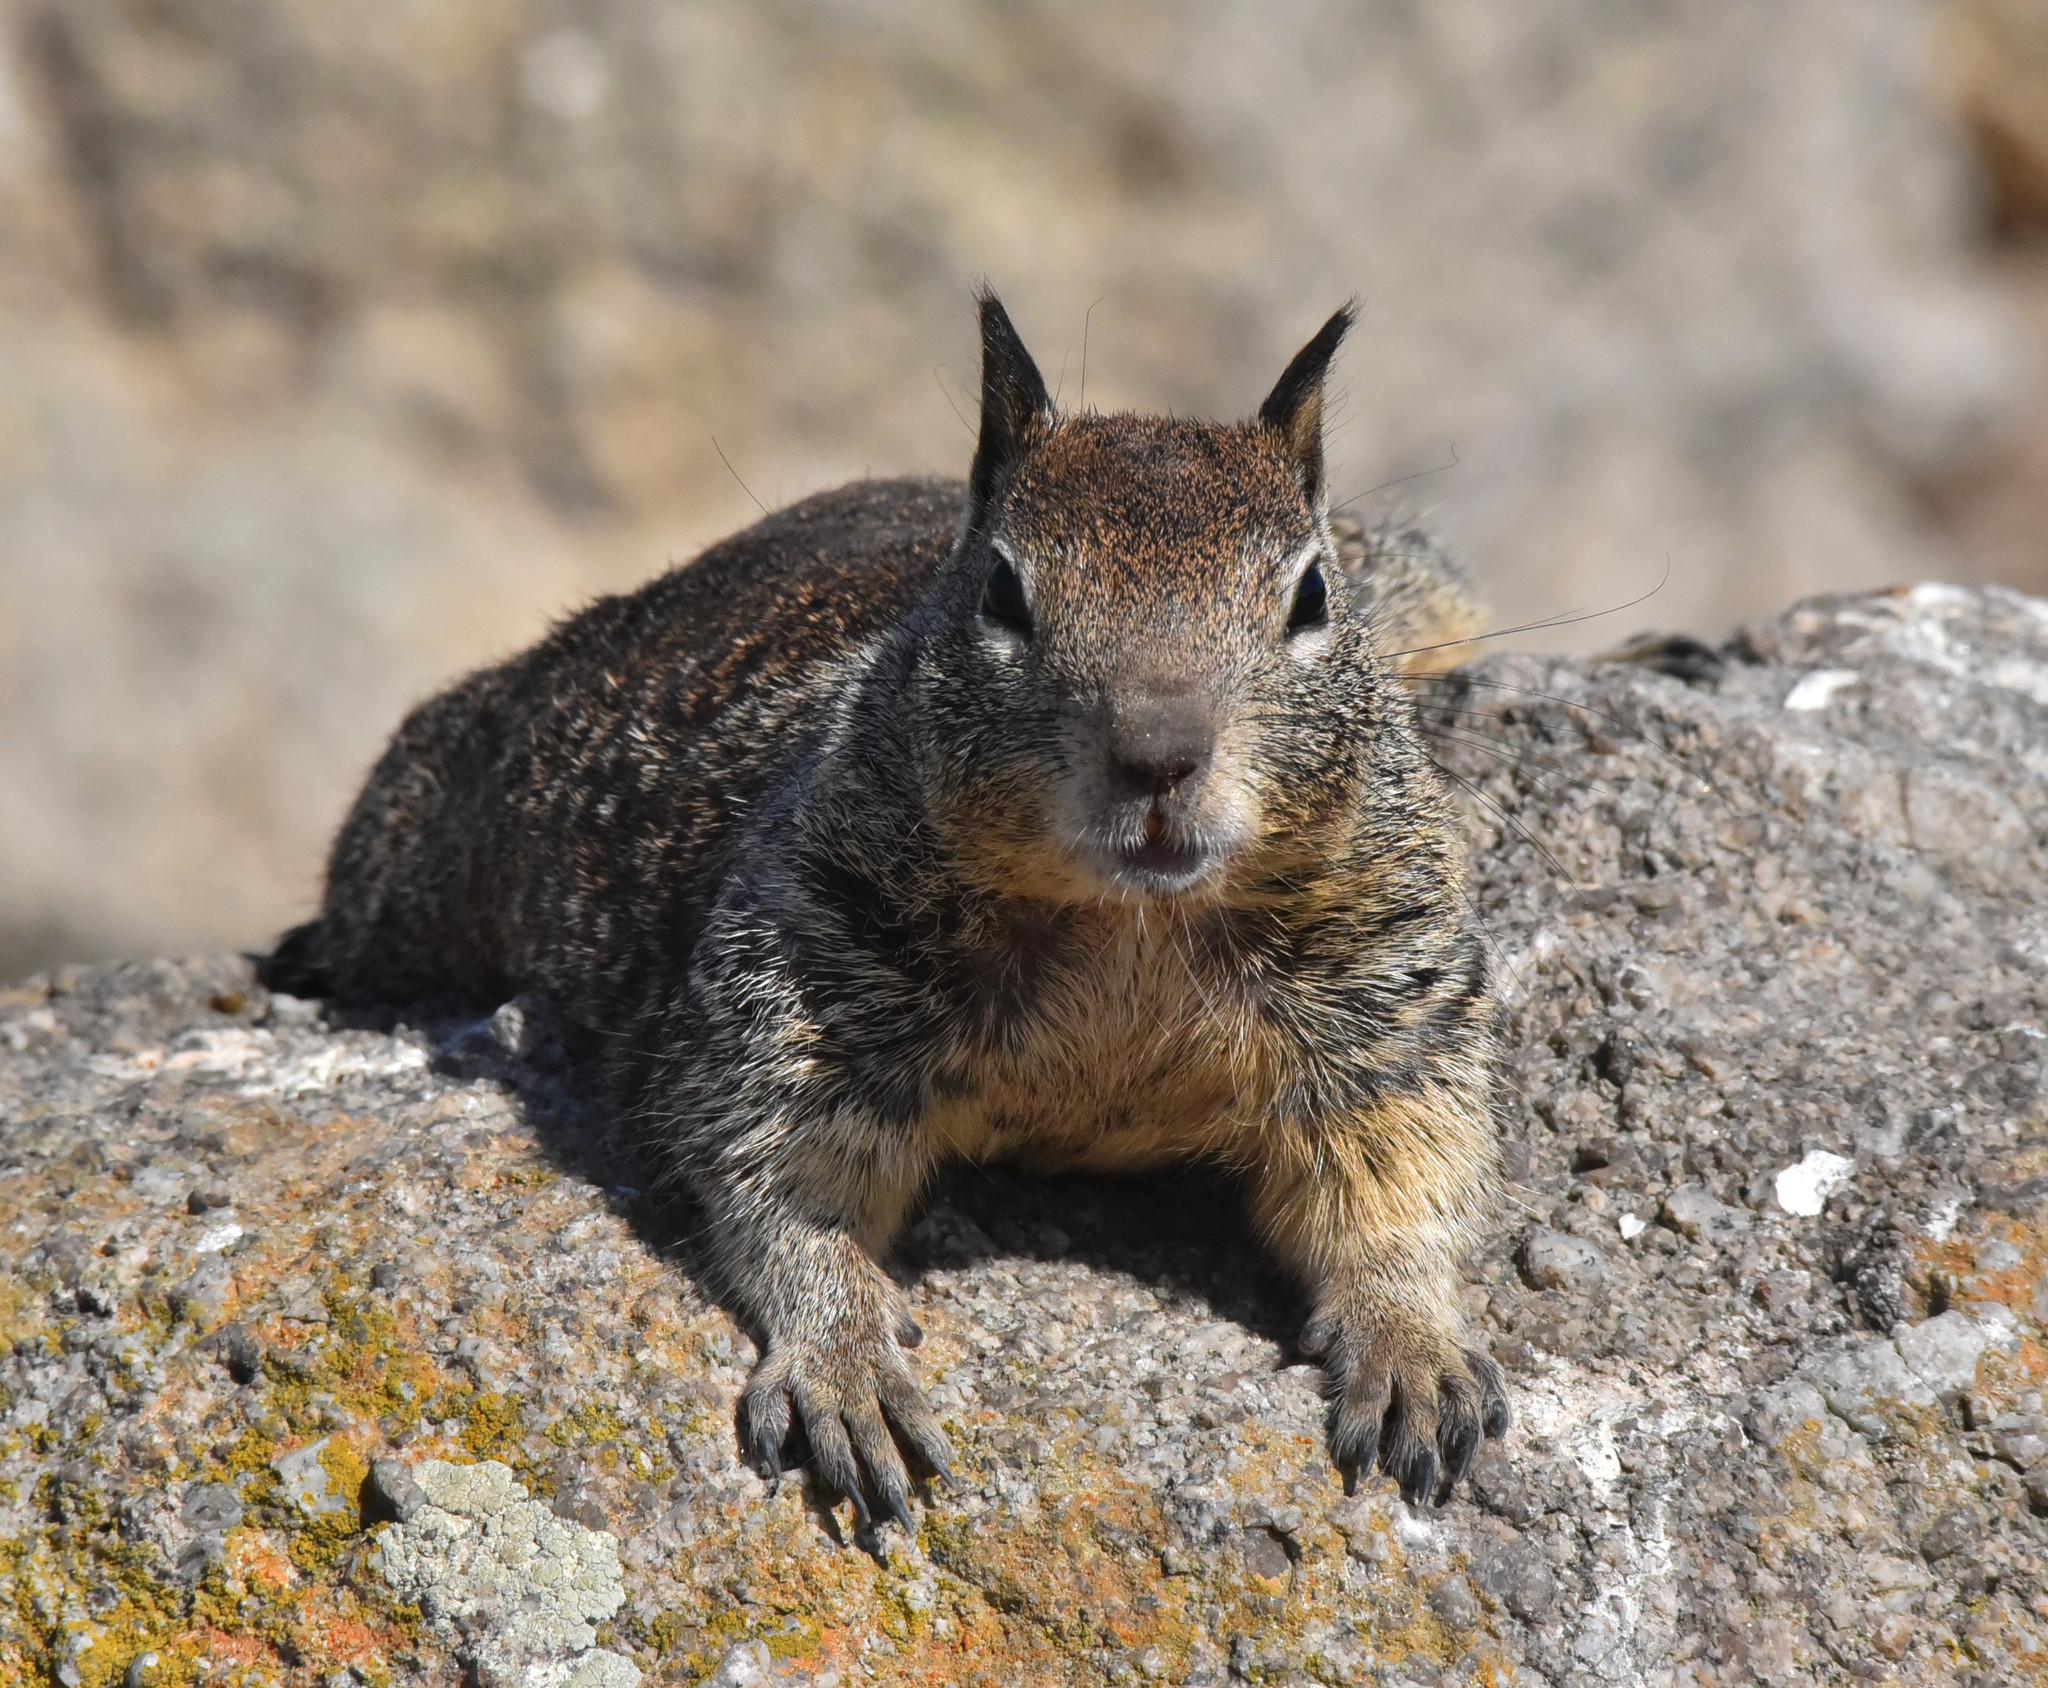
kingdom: Animalia
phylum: Chordata
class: Mammalia
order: Rodentia
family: Sciuridae
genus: Otospermophilus
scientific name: Otospermophilus beecheyi
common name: California ground squirrel
